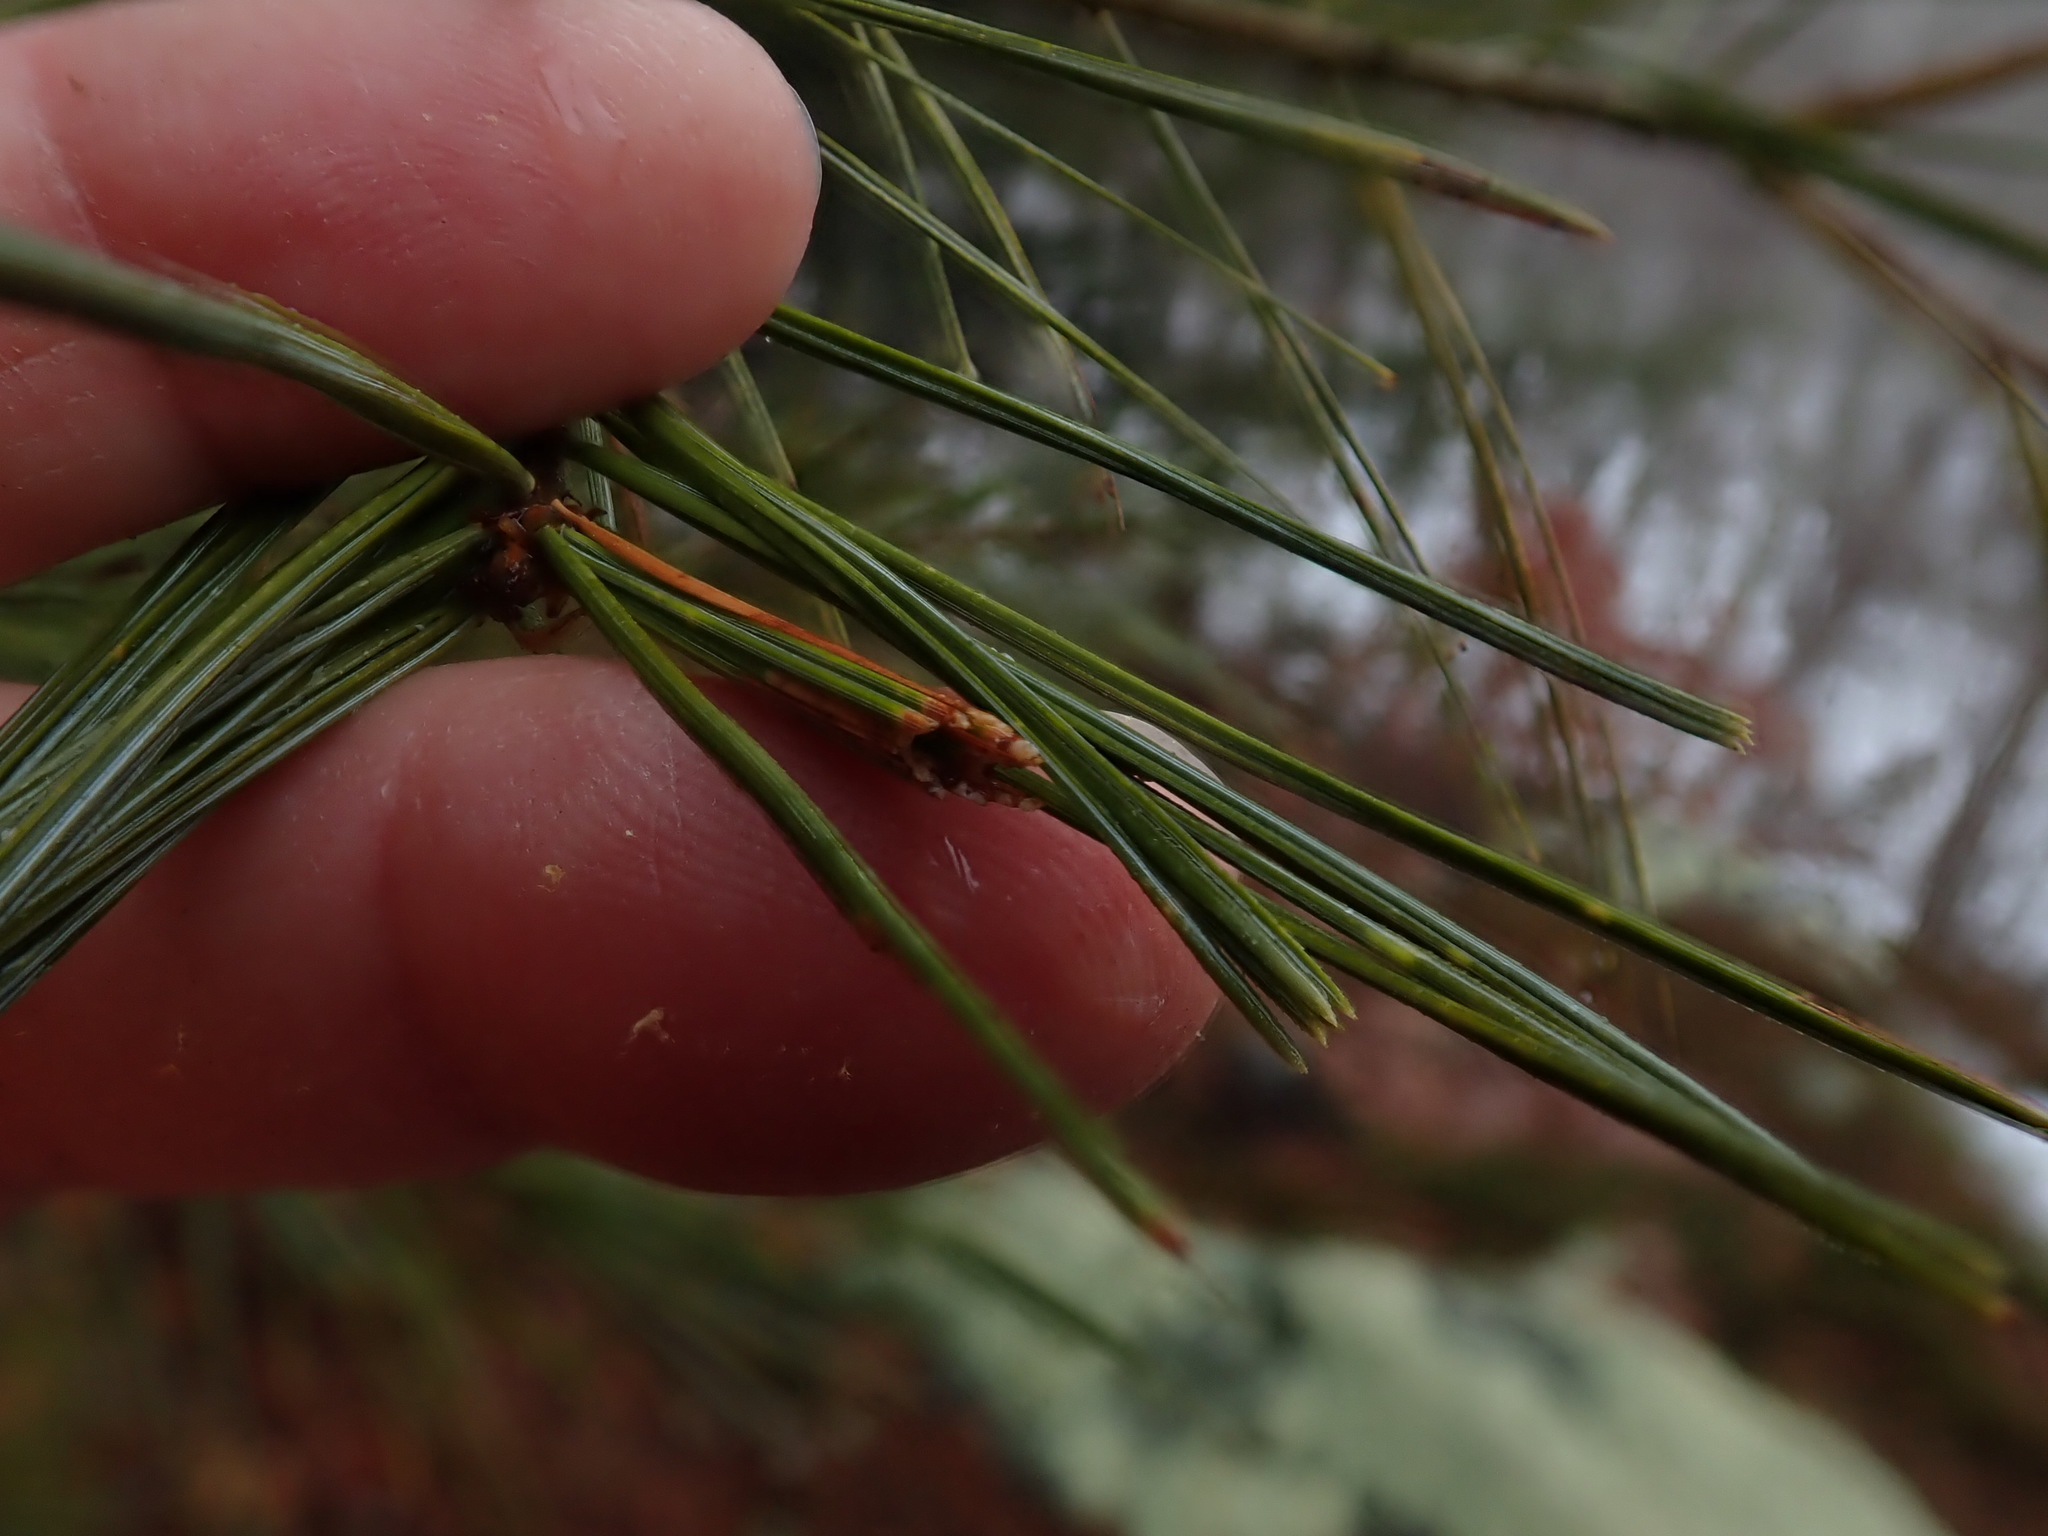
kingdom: Animalia
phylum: Arthropoda
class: Insecta
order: Lepidoptera
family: Tortricidae
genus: Argyrotaenia
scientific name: Argyrotaenia pinatubana
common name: Pine tube moth
